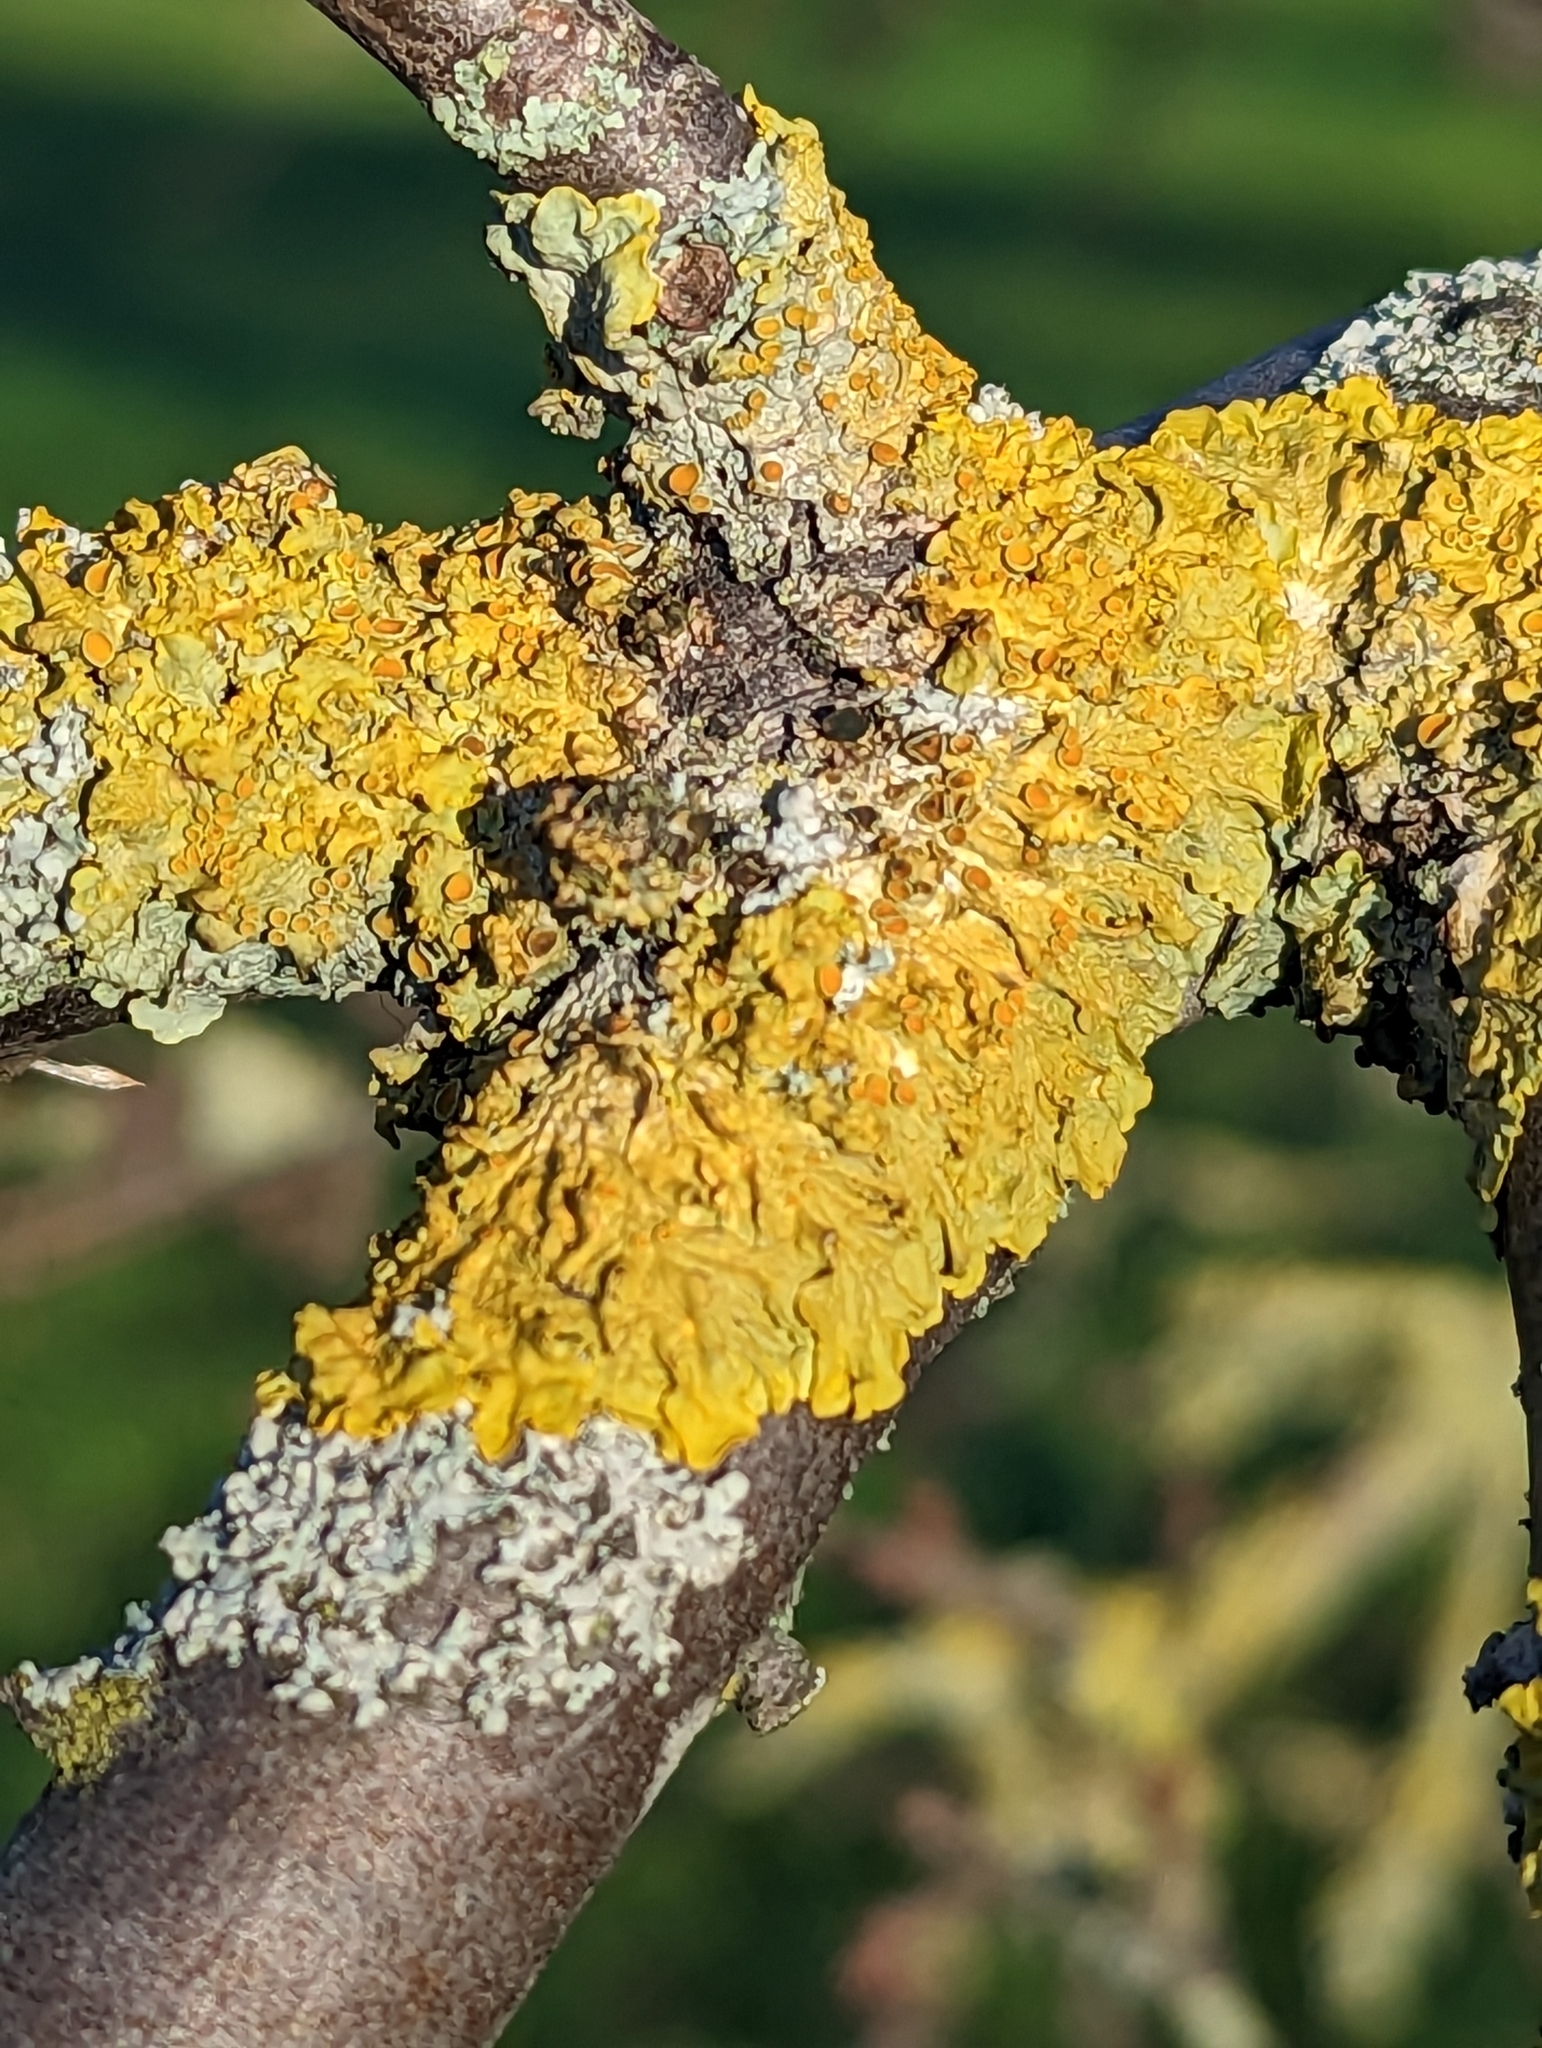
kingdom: Fungi
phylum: Ascomycota
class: Lecanoromycetes
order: Teloschistales
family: Teloschistaceae
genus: Xanthoria
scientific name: Xanthoria parietina
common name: Common orange lichen
